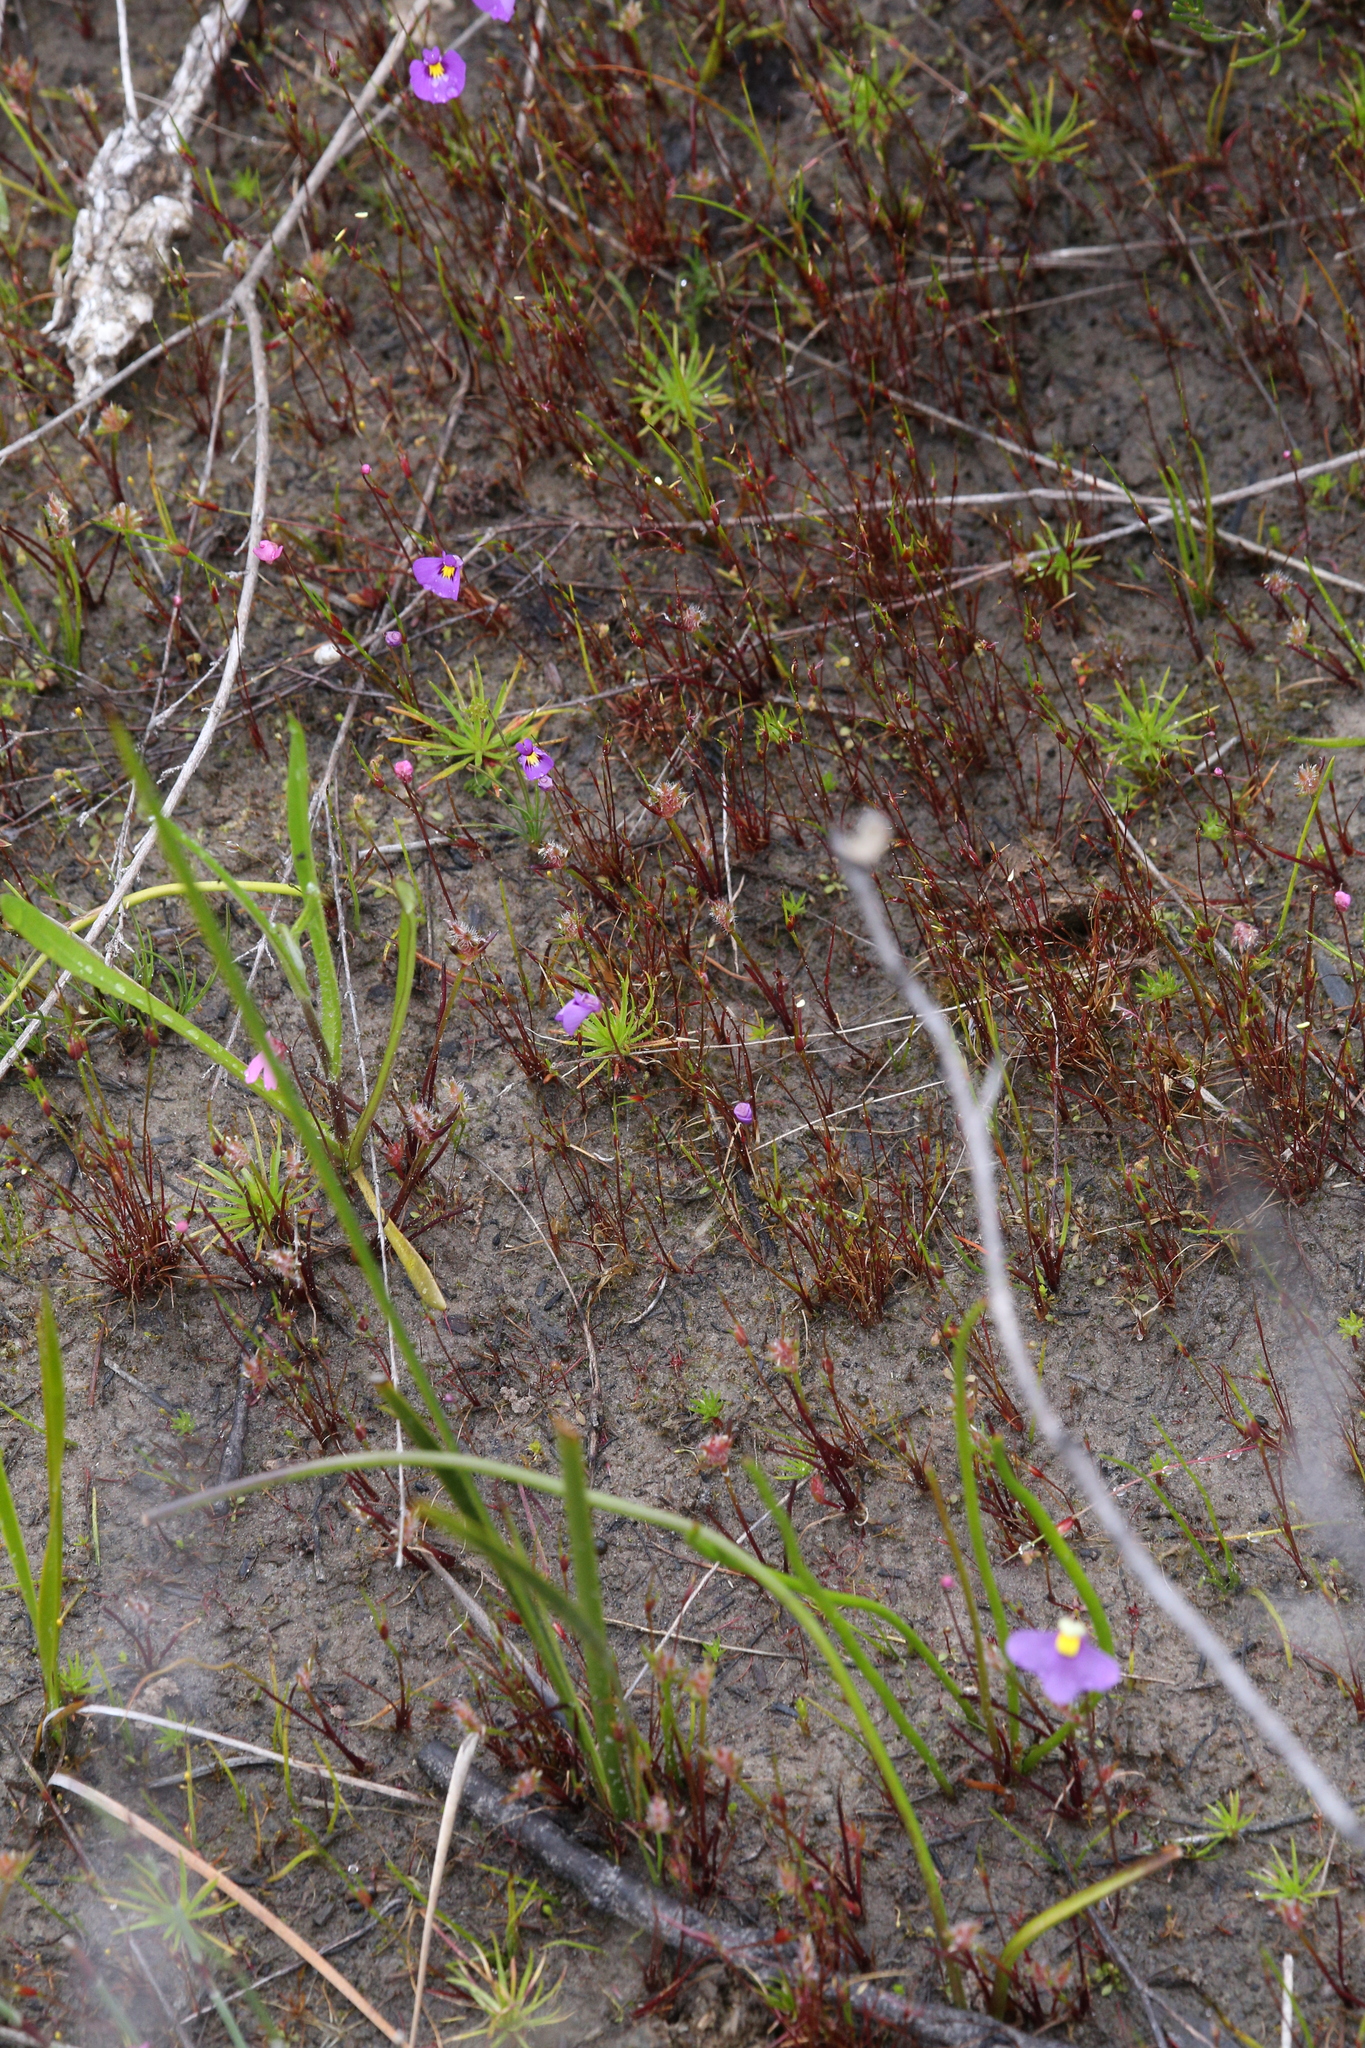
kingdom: Plantae
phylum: Tracheophyta
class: Magnoliopsida
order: Lamiales
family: Lentibulariaceae
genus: Utricularia
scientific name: Utricularia petertaylorii
